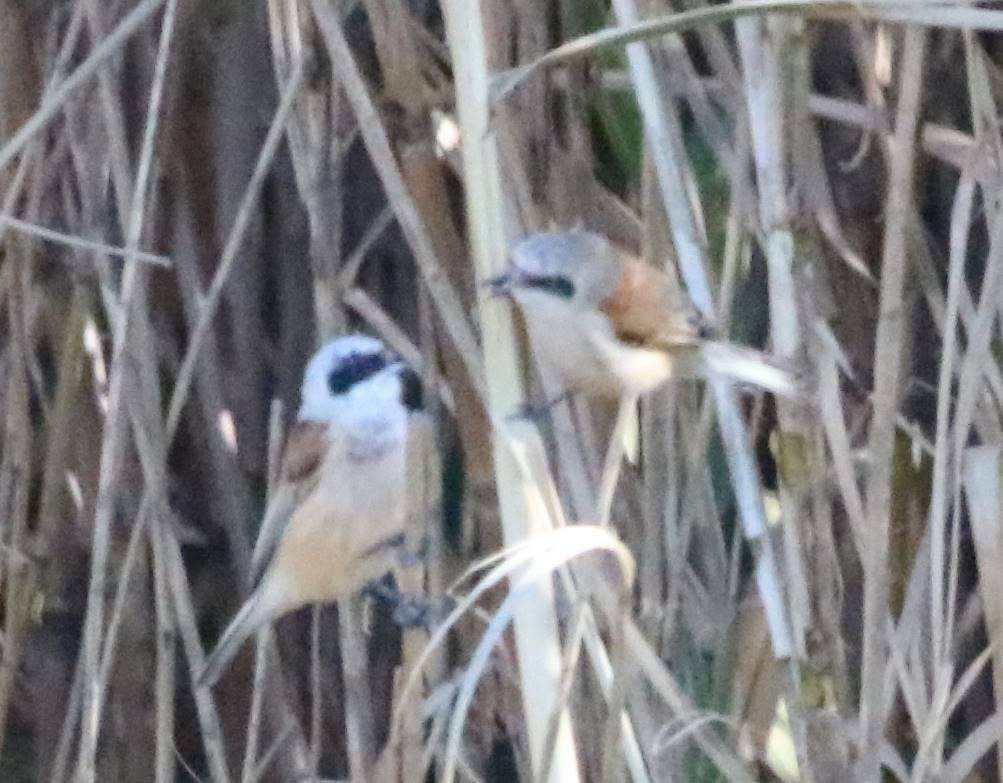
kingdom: Animalia
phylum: Chordata
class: Aves
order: Passeriformes
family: Remizidae
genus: Remiz
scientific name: Remiz pendulinus
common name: Eurasian penduline tit
